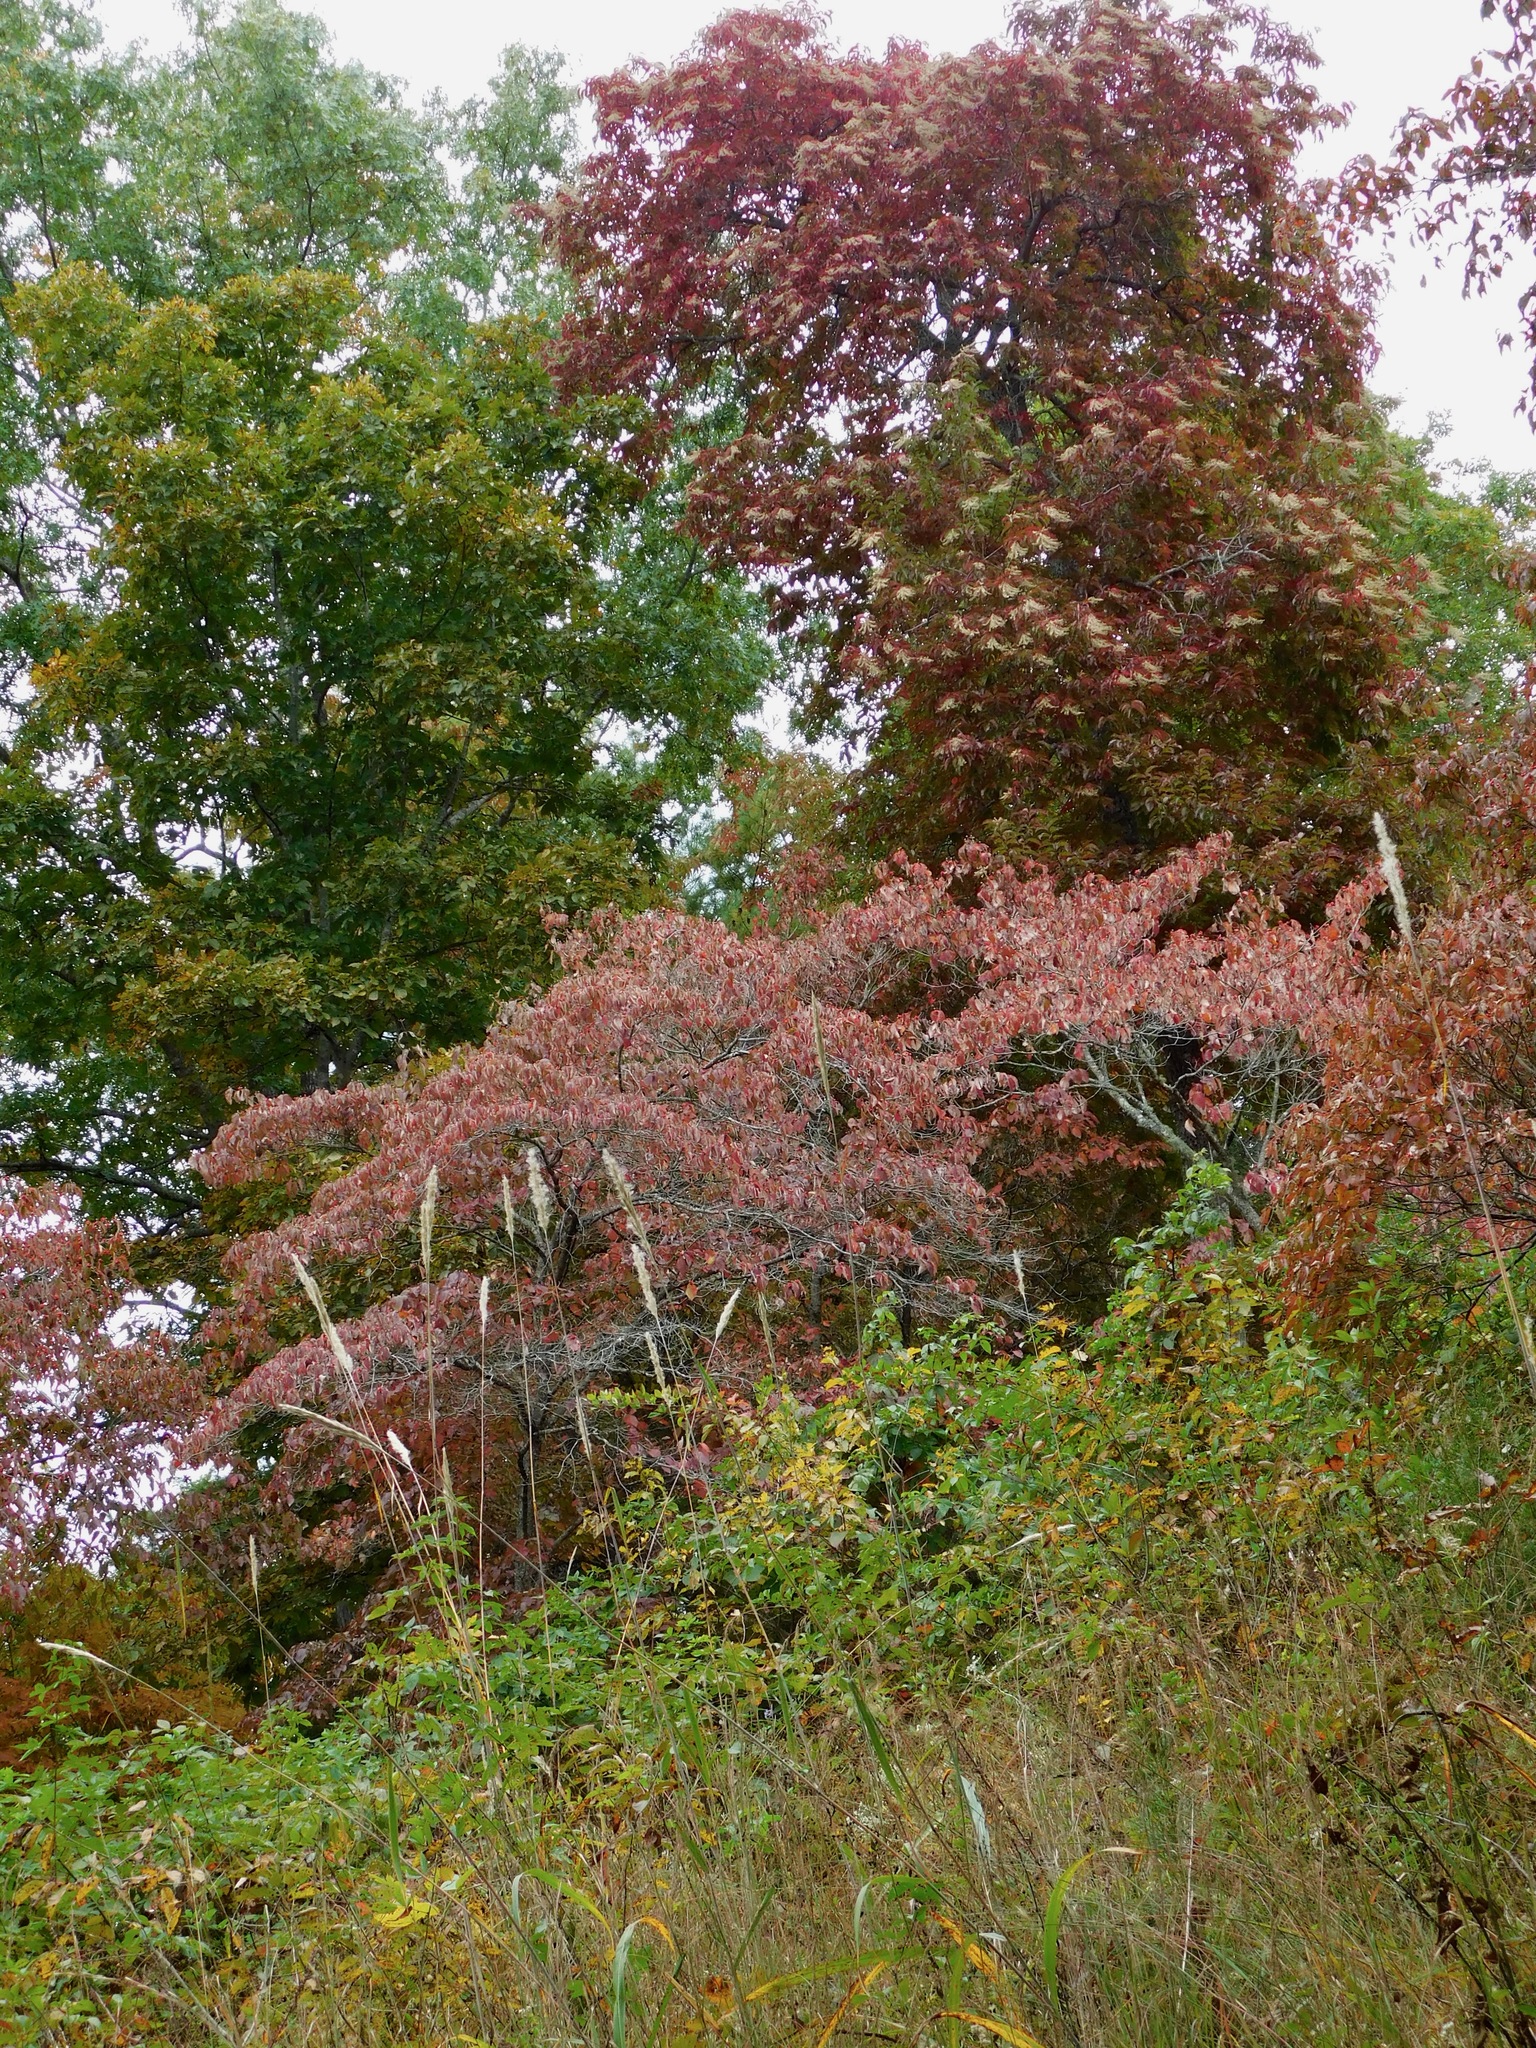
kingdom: Plantae
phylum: Tracheophyta
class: Magnoliopsida
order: Cornales
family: Cornaceae
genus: Cornus
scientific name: Cornus florida
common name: Flowering dogwood
